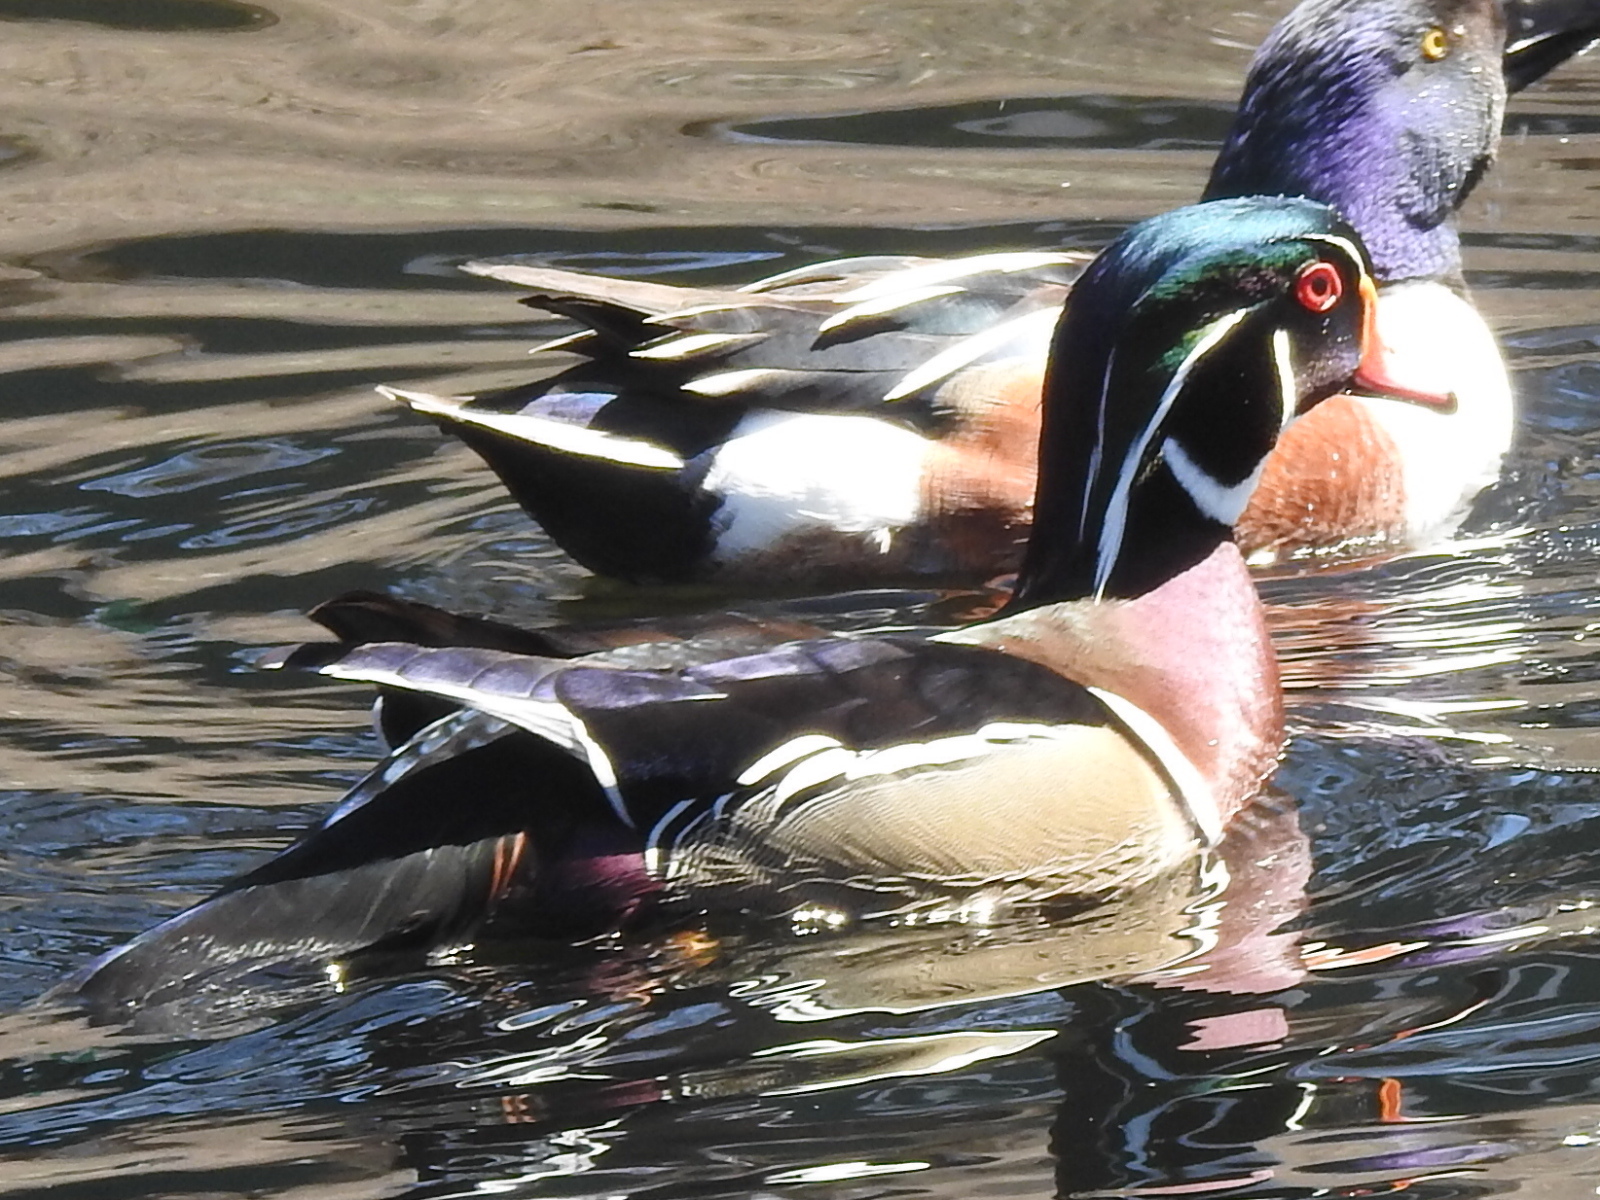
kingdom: Animalia
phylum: Chordata
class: Aves
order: Anseriformes
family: Anatidae
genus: Aix
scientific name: Aix sponsa
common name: Wood duck
